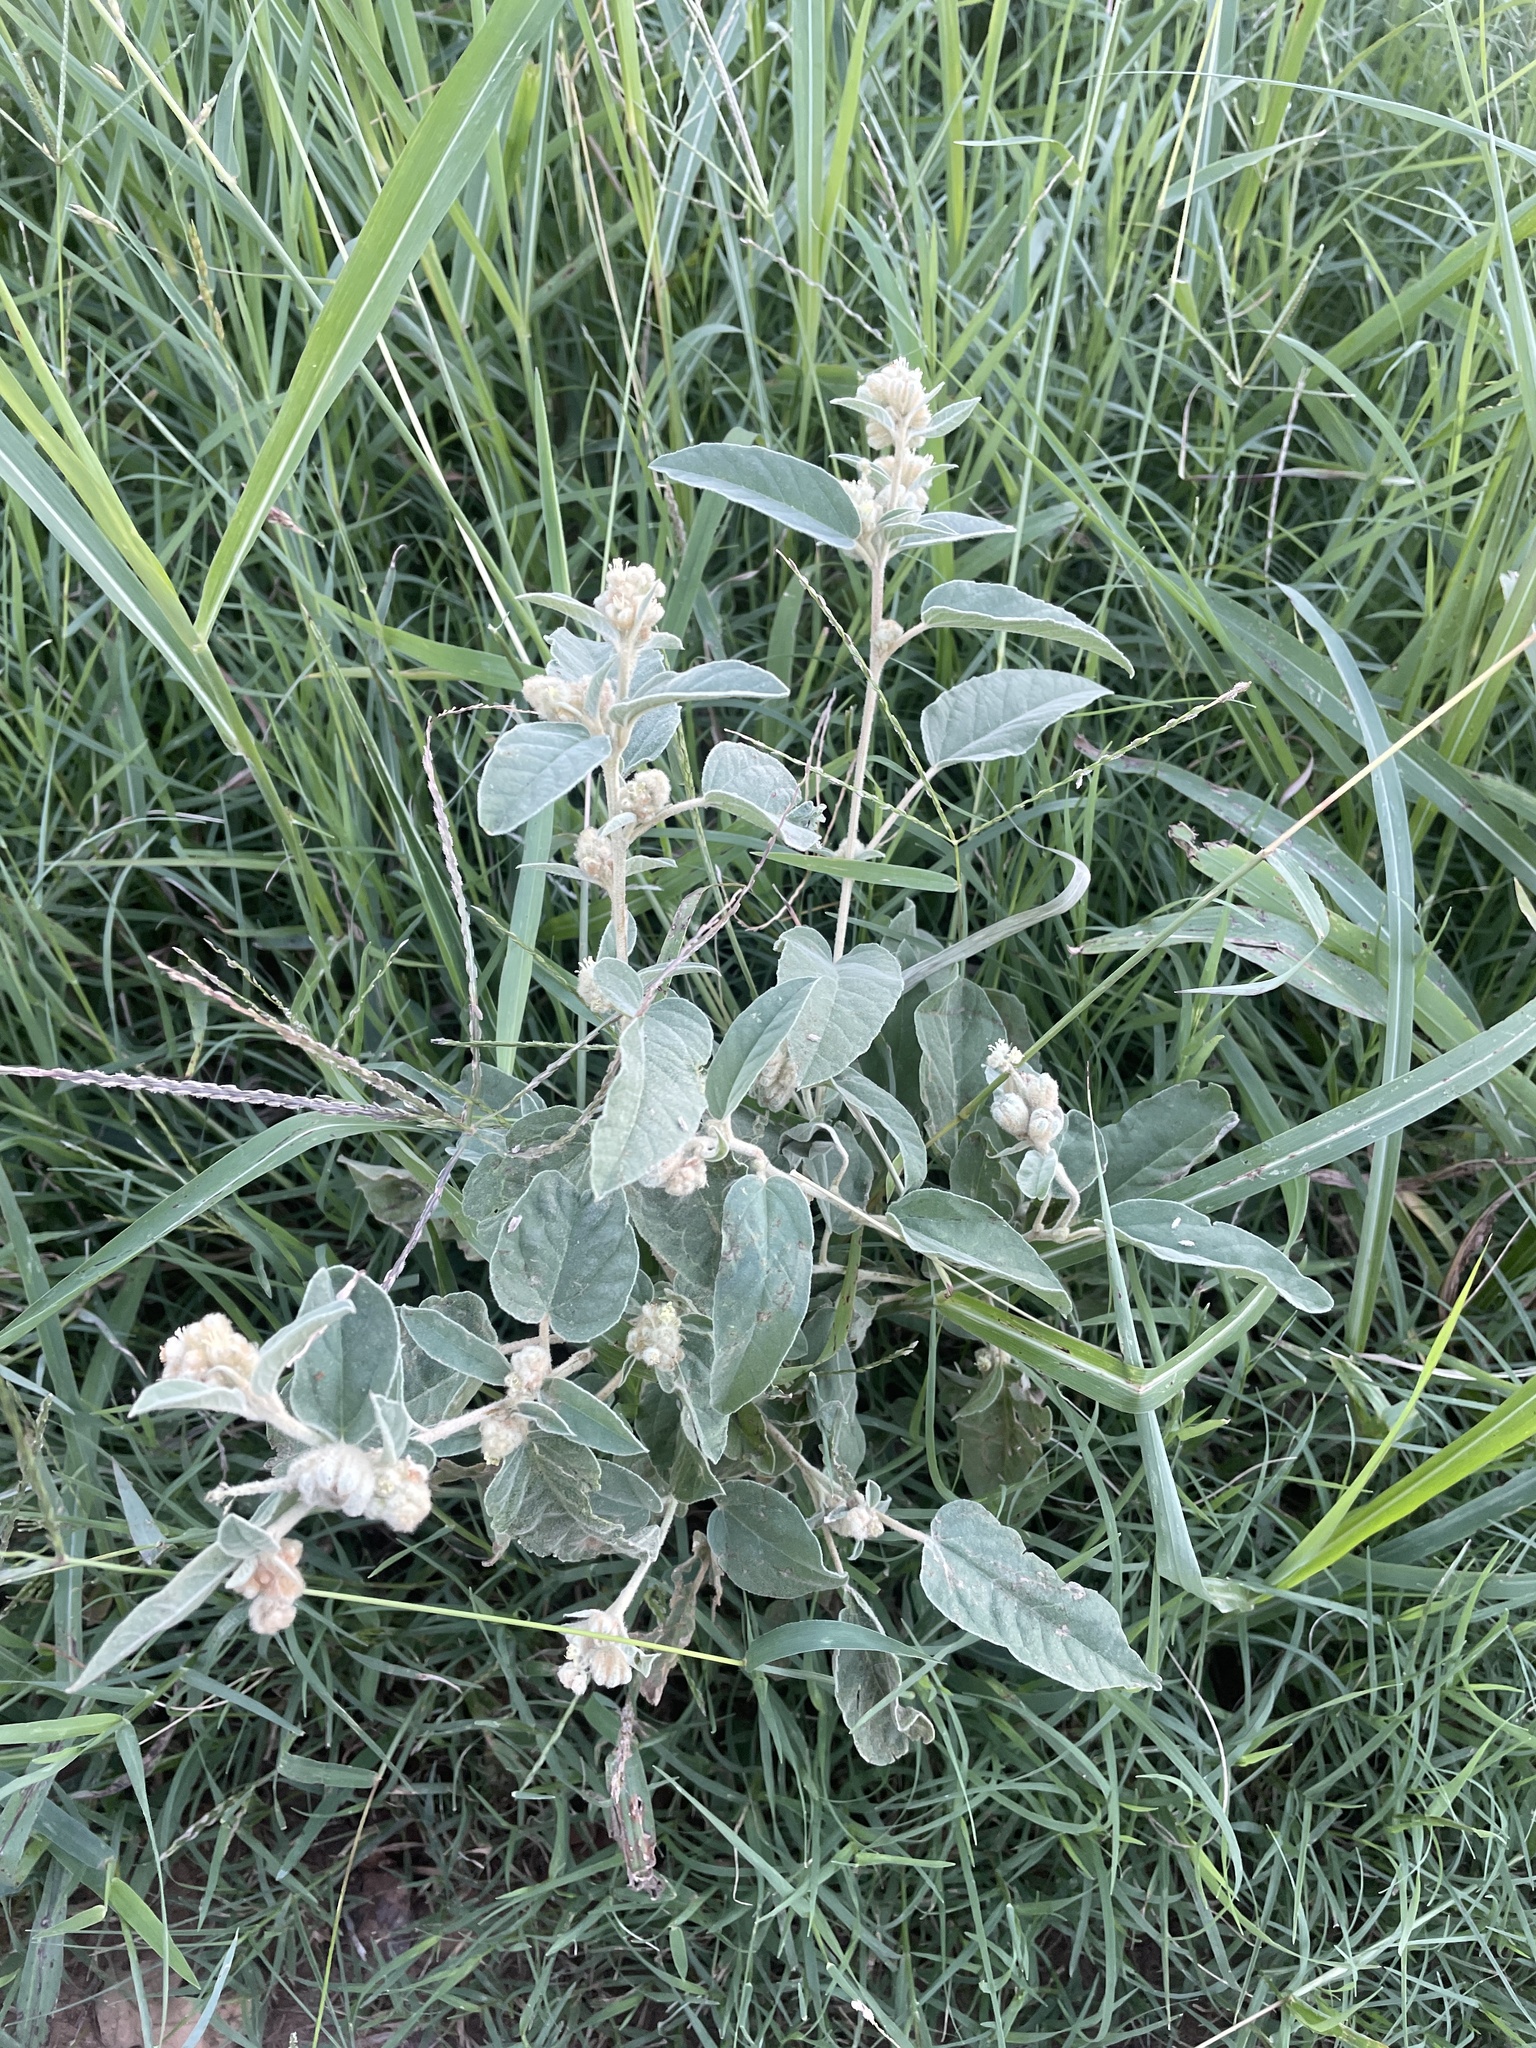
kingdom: Plantae
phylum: Tracheophyta
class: Magnoliopsida
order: Malpighiales
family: Euphorbiaceae
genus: Croton
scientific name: Croton lindheimeri
